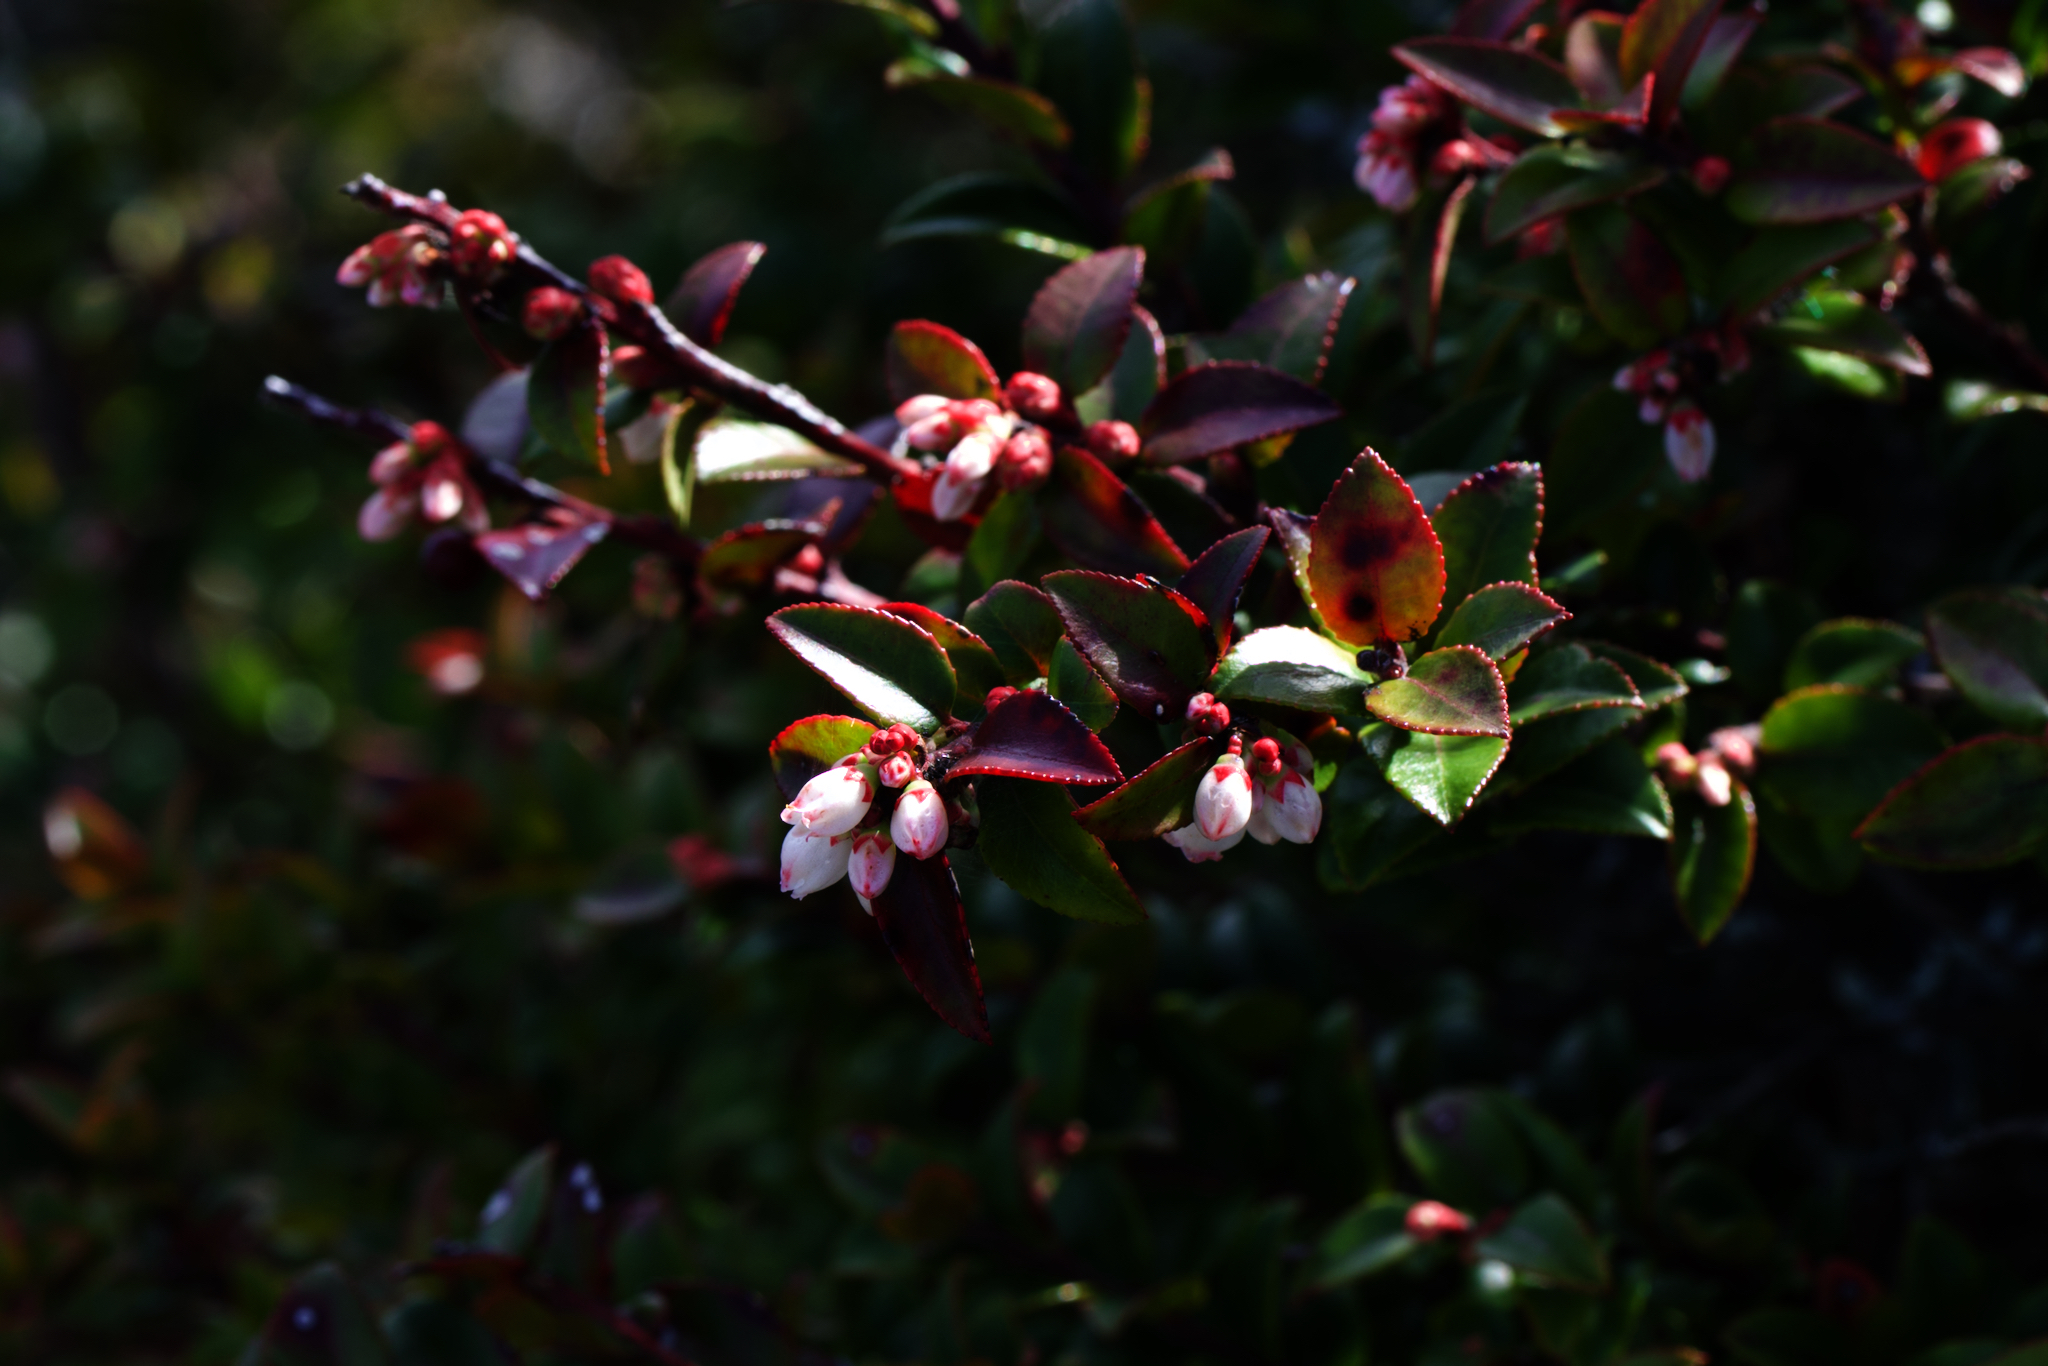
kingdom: Plantae
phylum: Tracheophyta
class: Magnoliopsida
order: Ericales
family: Ericaceae
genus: Vaccinium
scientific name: Vaccinium ovatum
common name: California-huckleberry
